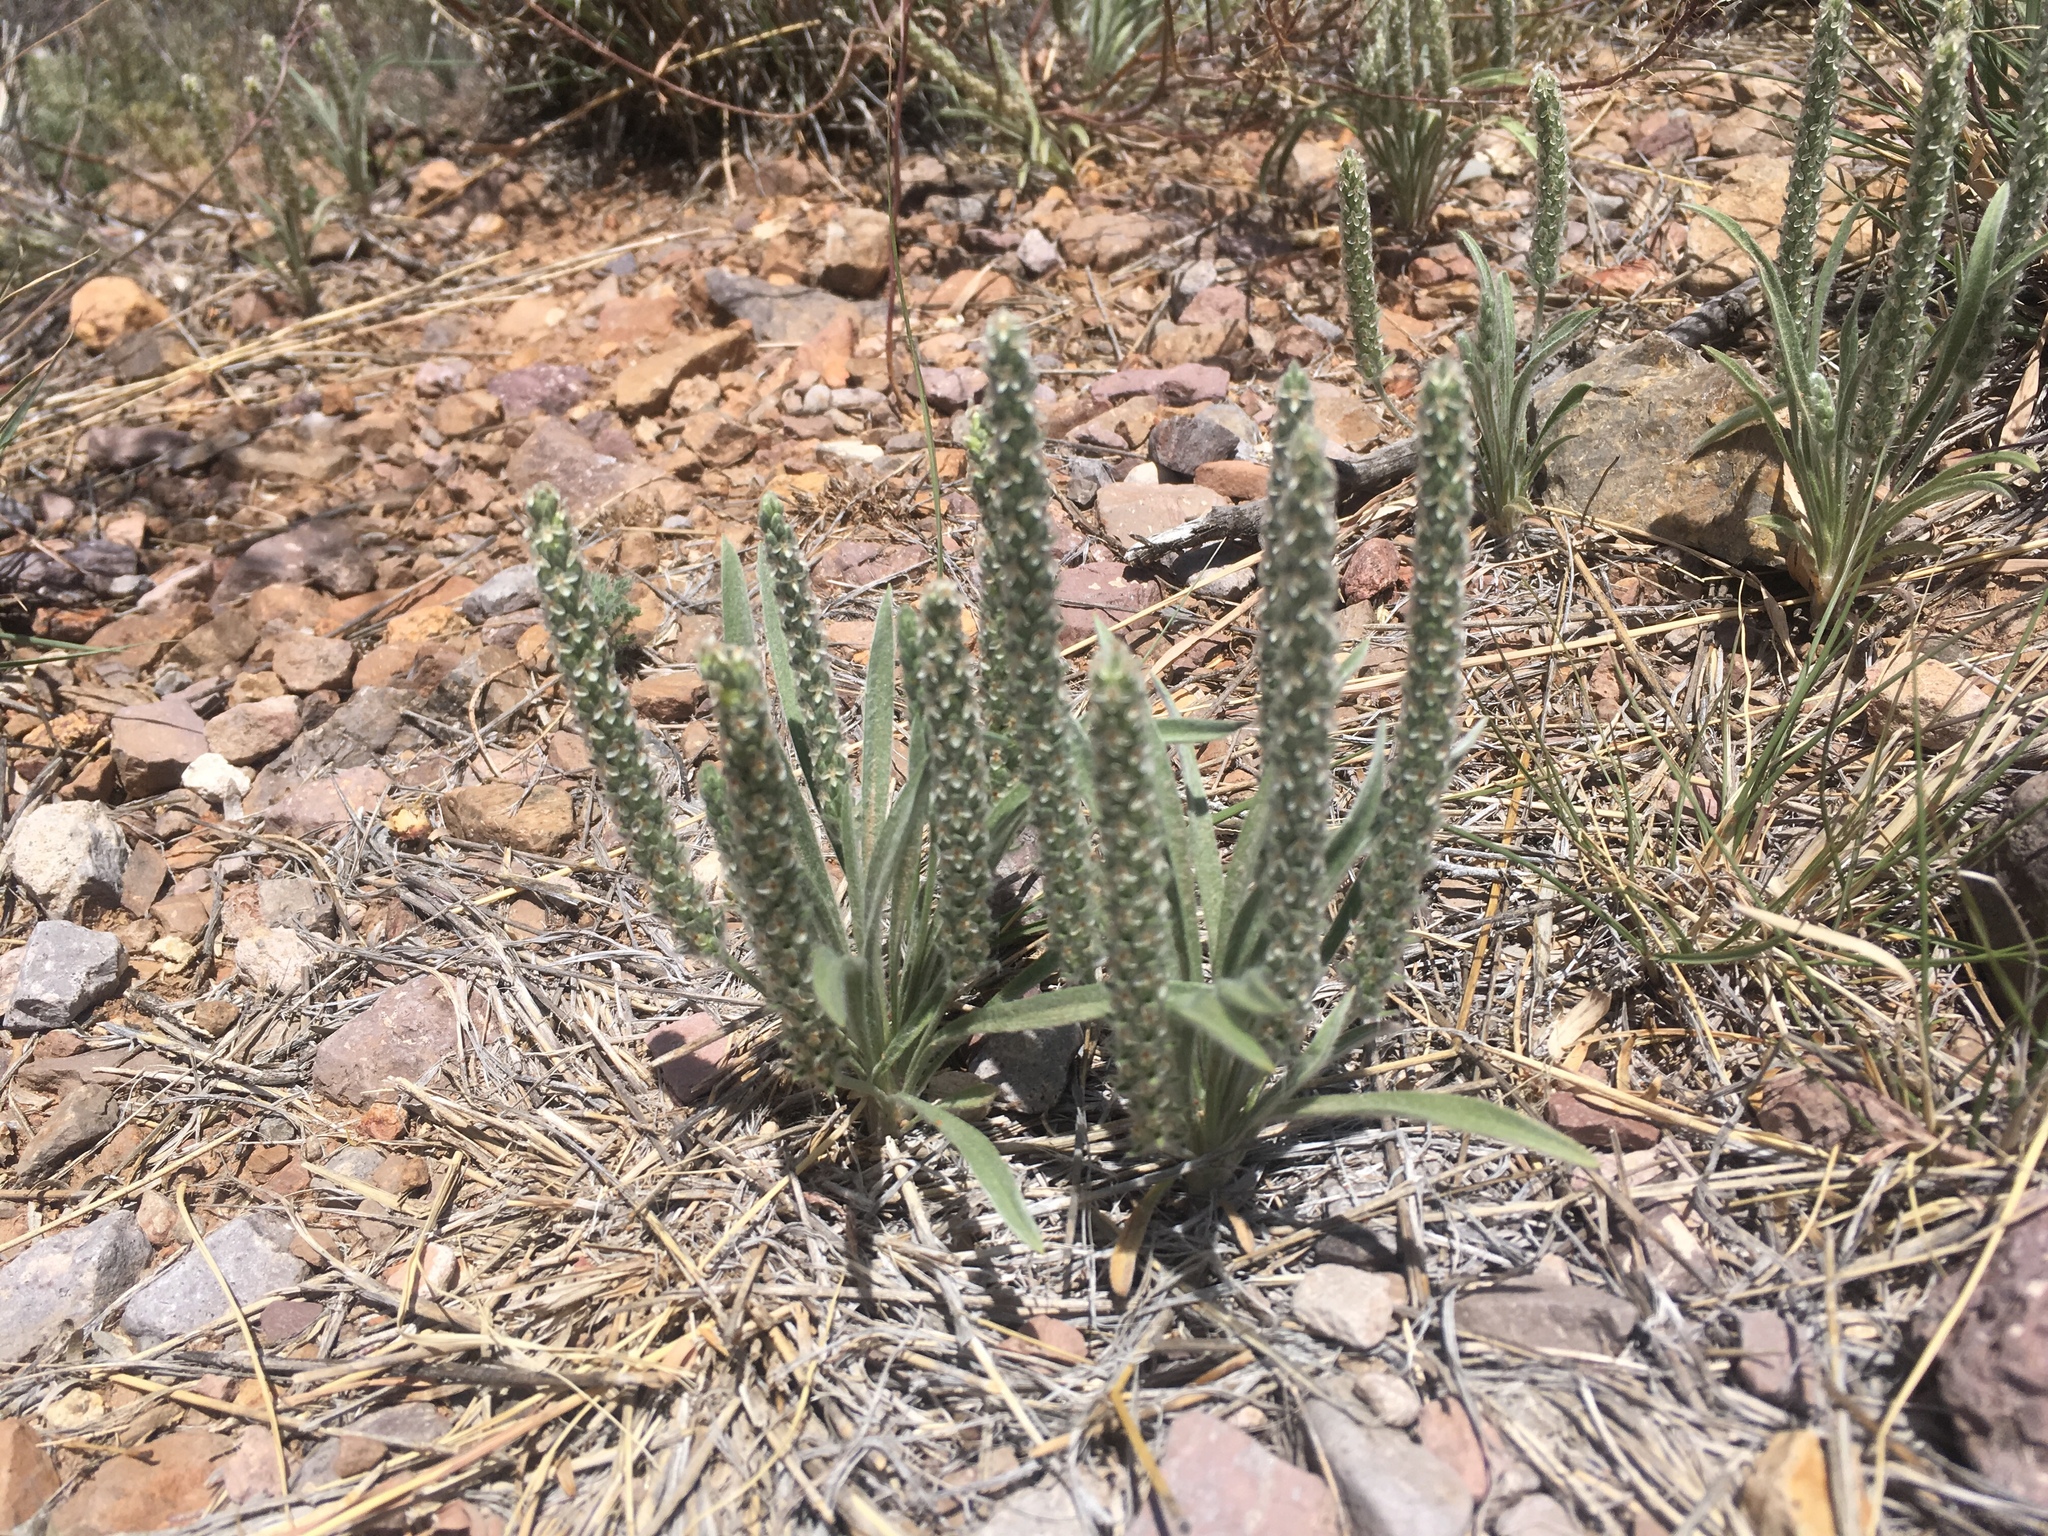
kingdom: Plantae
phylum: Tracheophyta
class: Magnoliopsida
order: Lamiales
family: Plantaginaceae
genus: Plantago
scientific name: Plantago patagonica
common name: Patagonia indian-wheat
